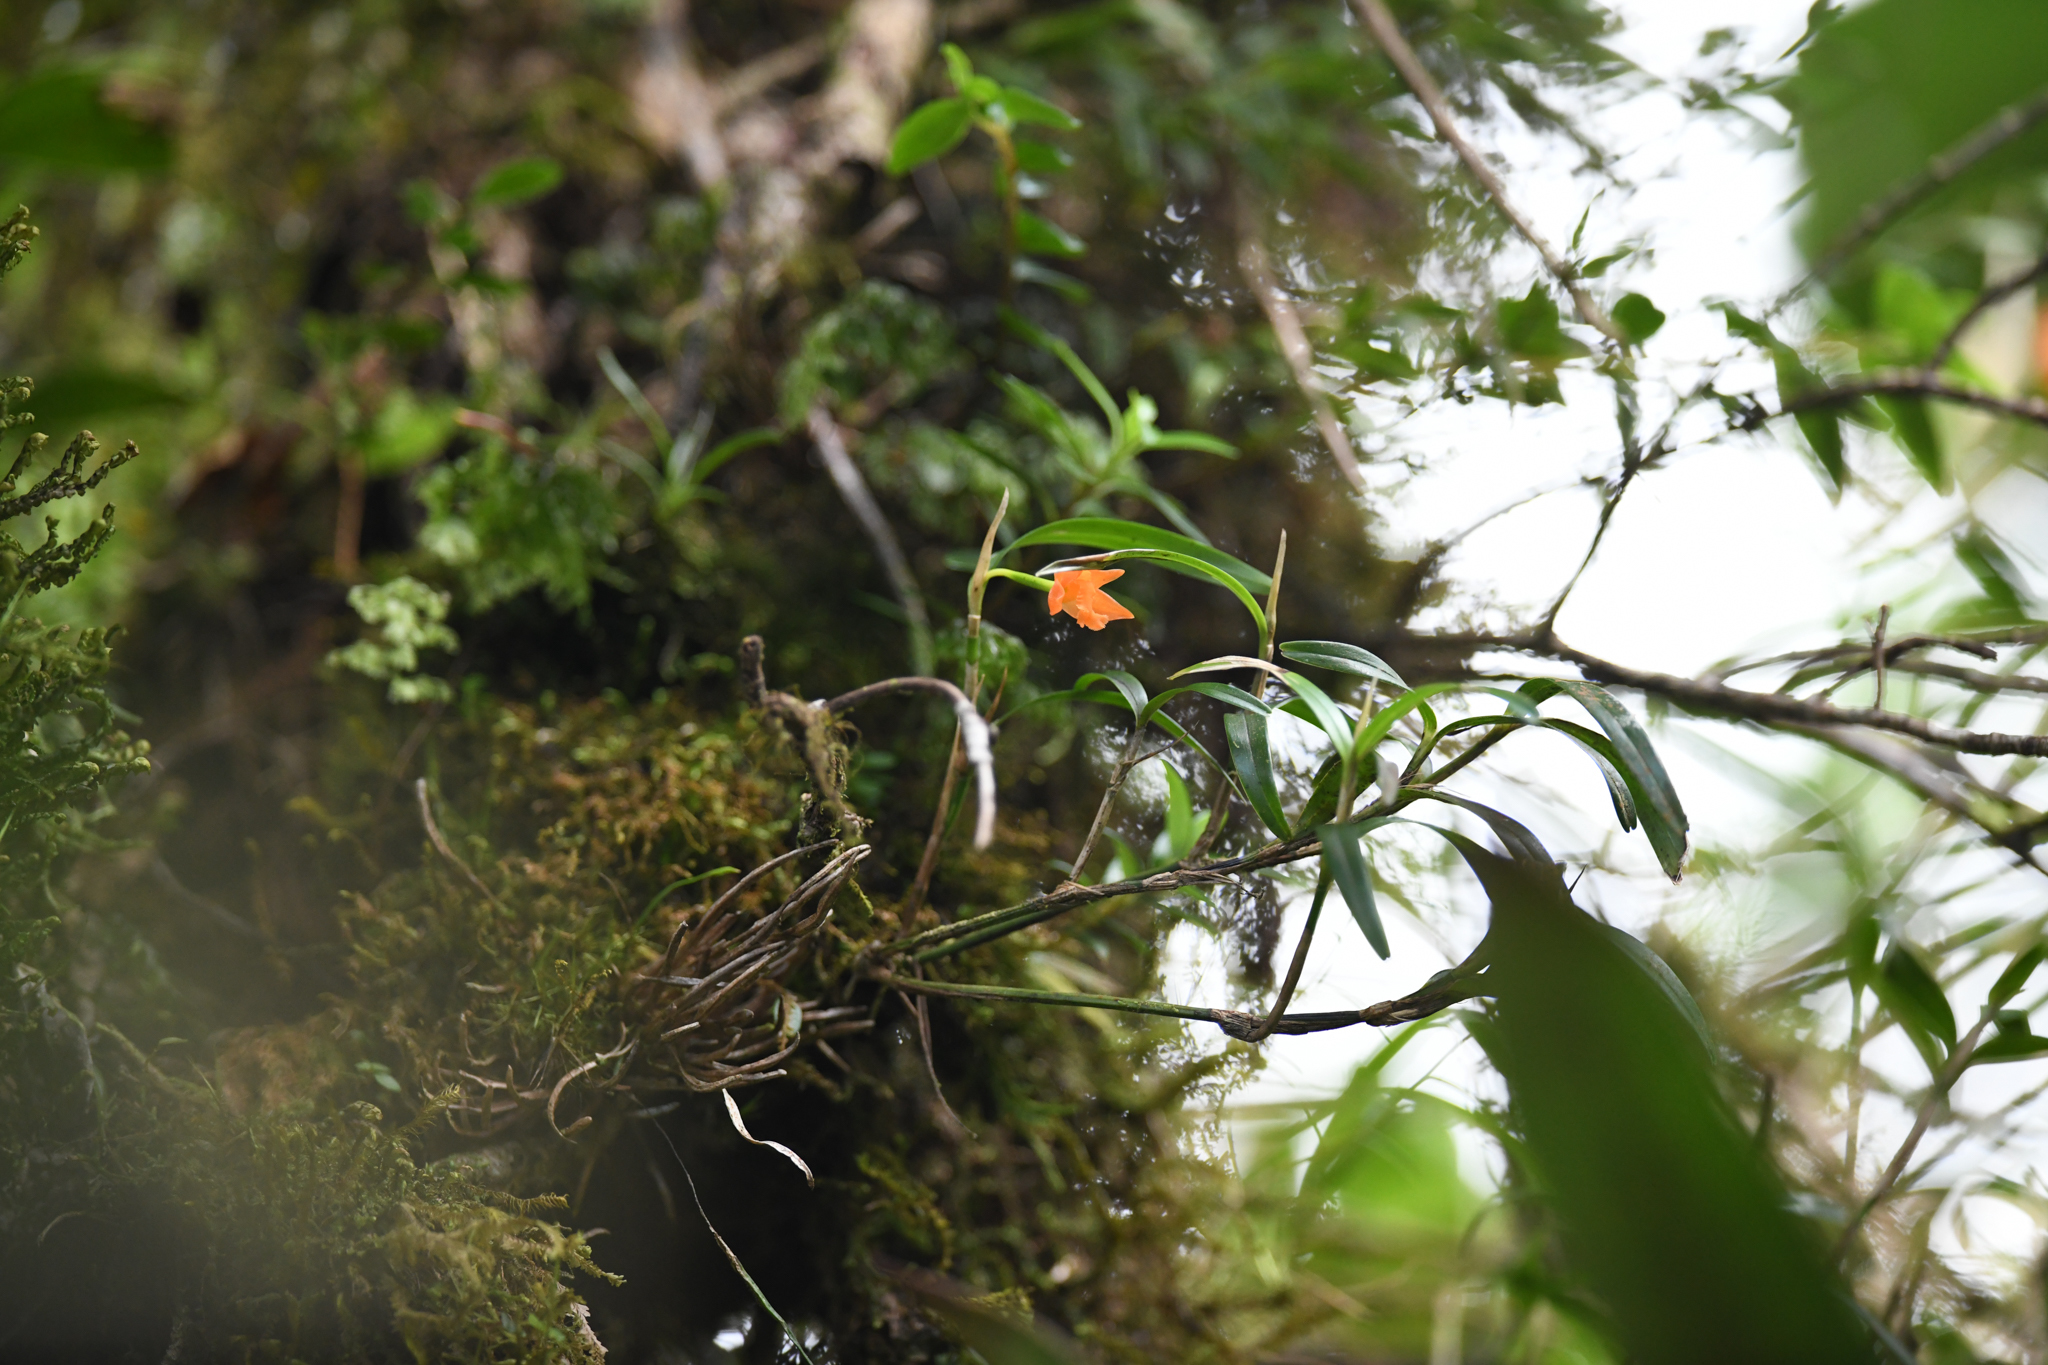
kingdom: Plantae
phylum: Tracheophyta
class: Liliopsida
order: Asparagales
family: Orchidaceae
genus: Scaphyglottis
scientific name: Scaphyglottis sigmoidea
